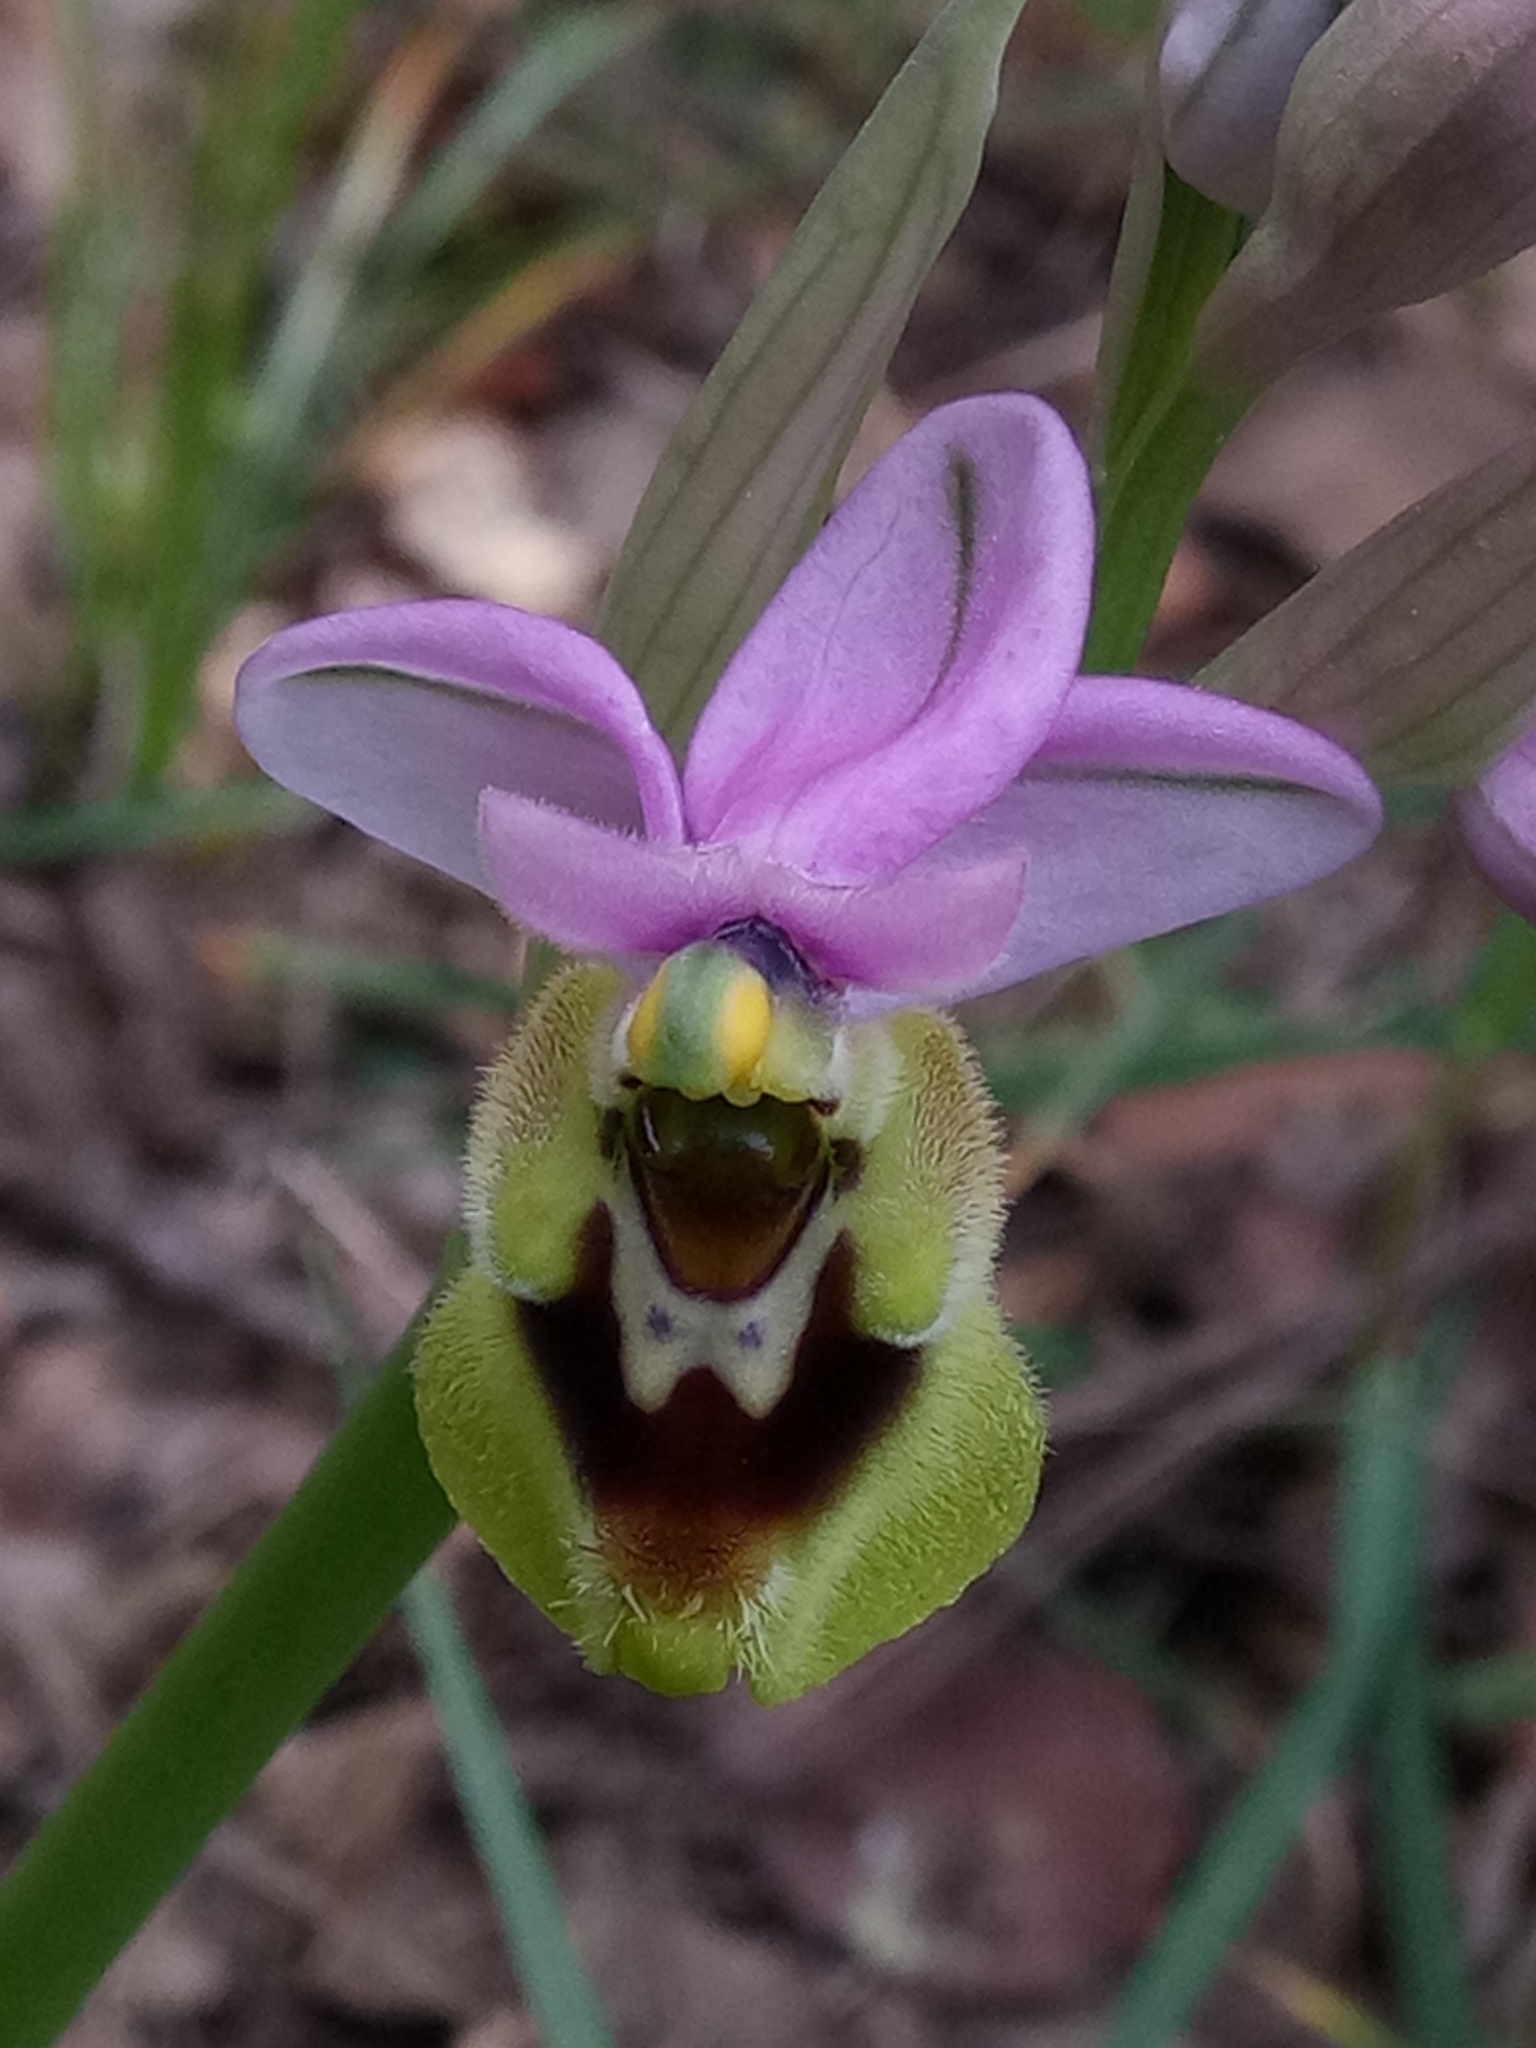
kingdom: Plantae
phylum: Tracheophyta
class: Liliopsida
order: Asparagales
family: Orchidaceae
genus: Ophrys
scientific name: Ophrys tenthredinifera
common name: Sawfly orchid
